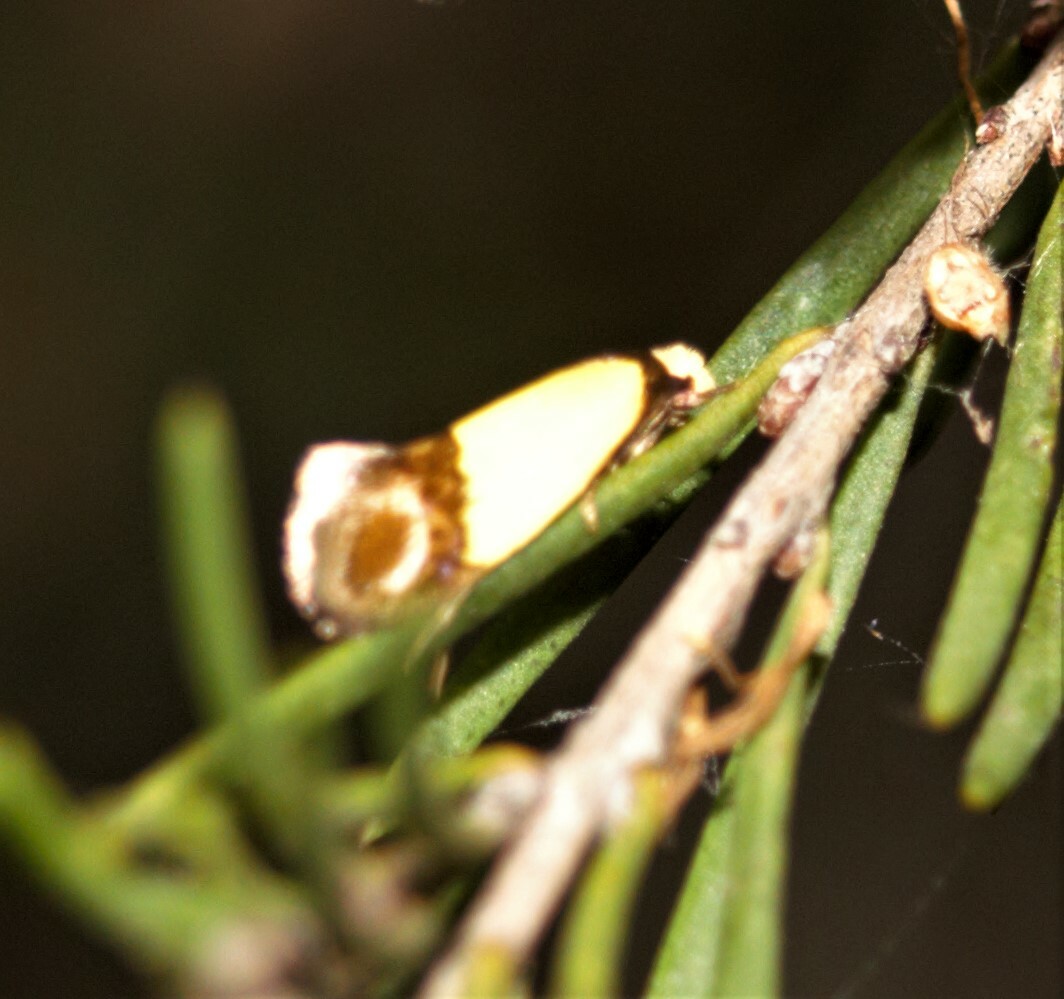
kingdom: Animalia
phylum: Arthropoda
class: Insecta
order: Lepidoptera
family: Tineidae
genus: Edosa
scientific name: Edosa xystidophora
